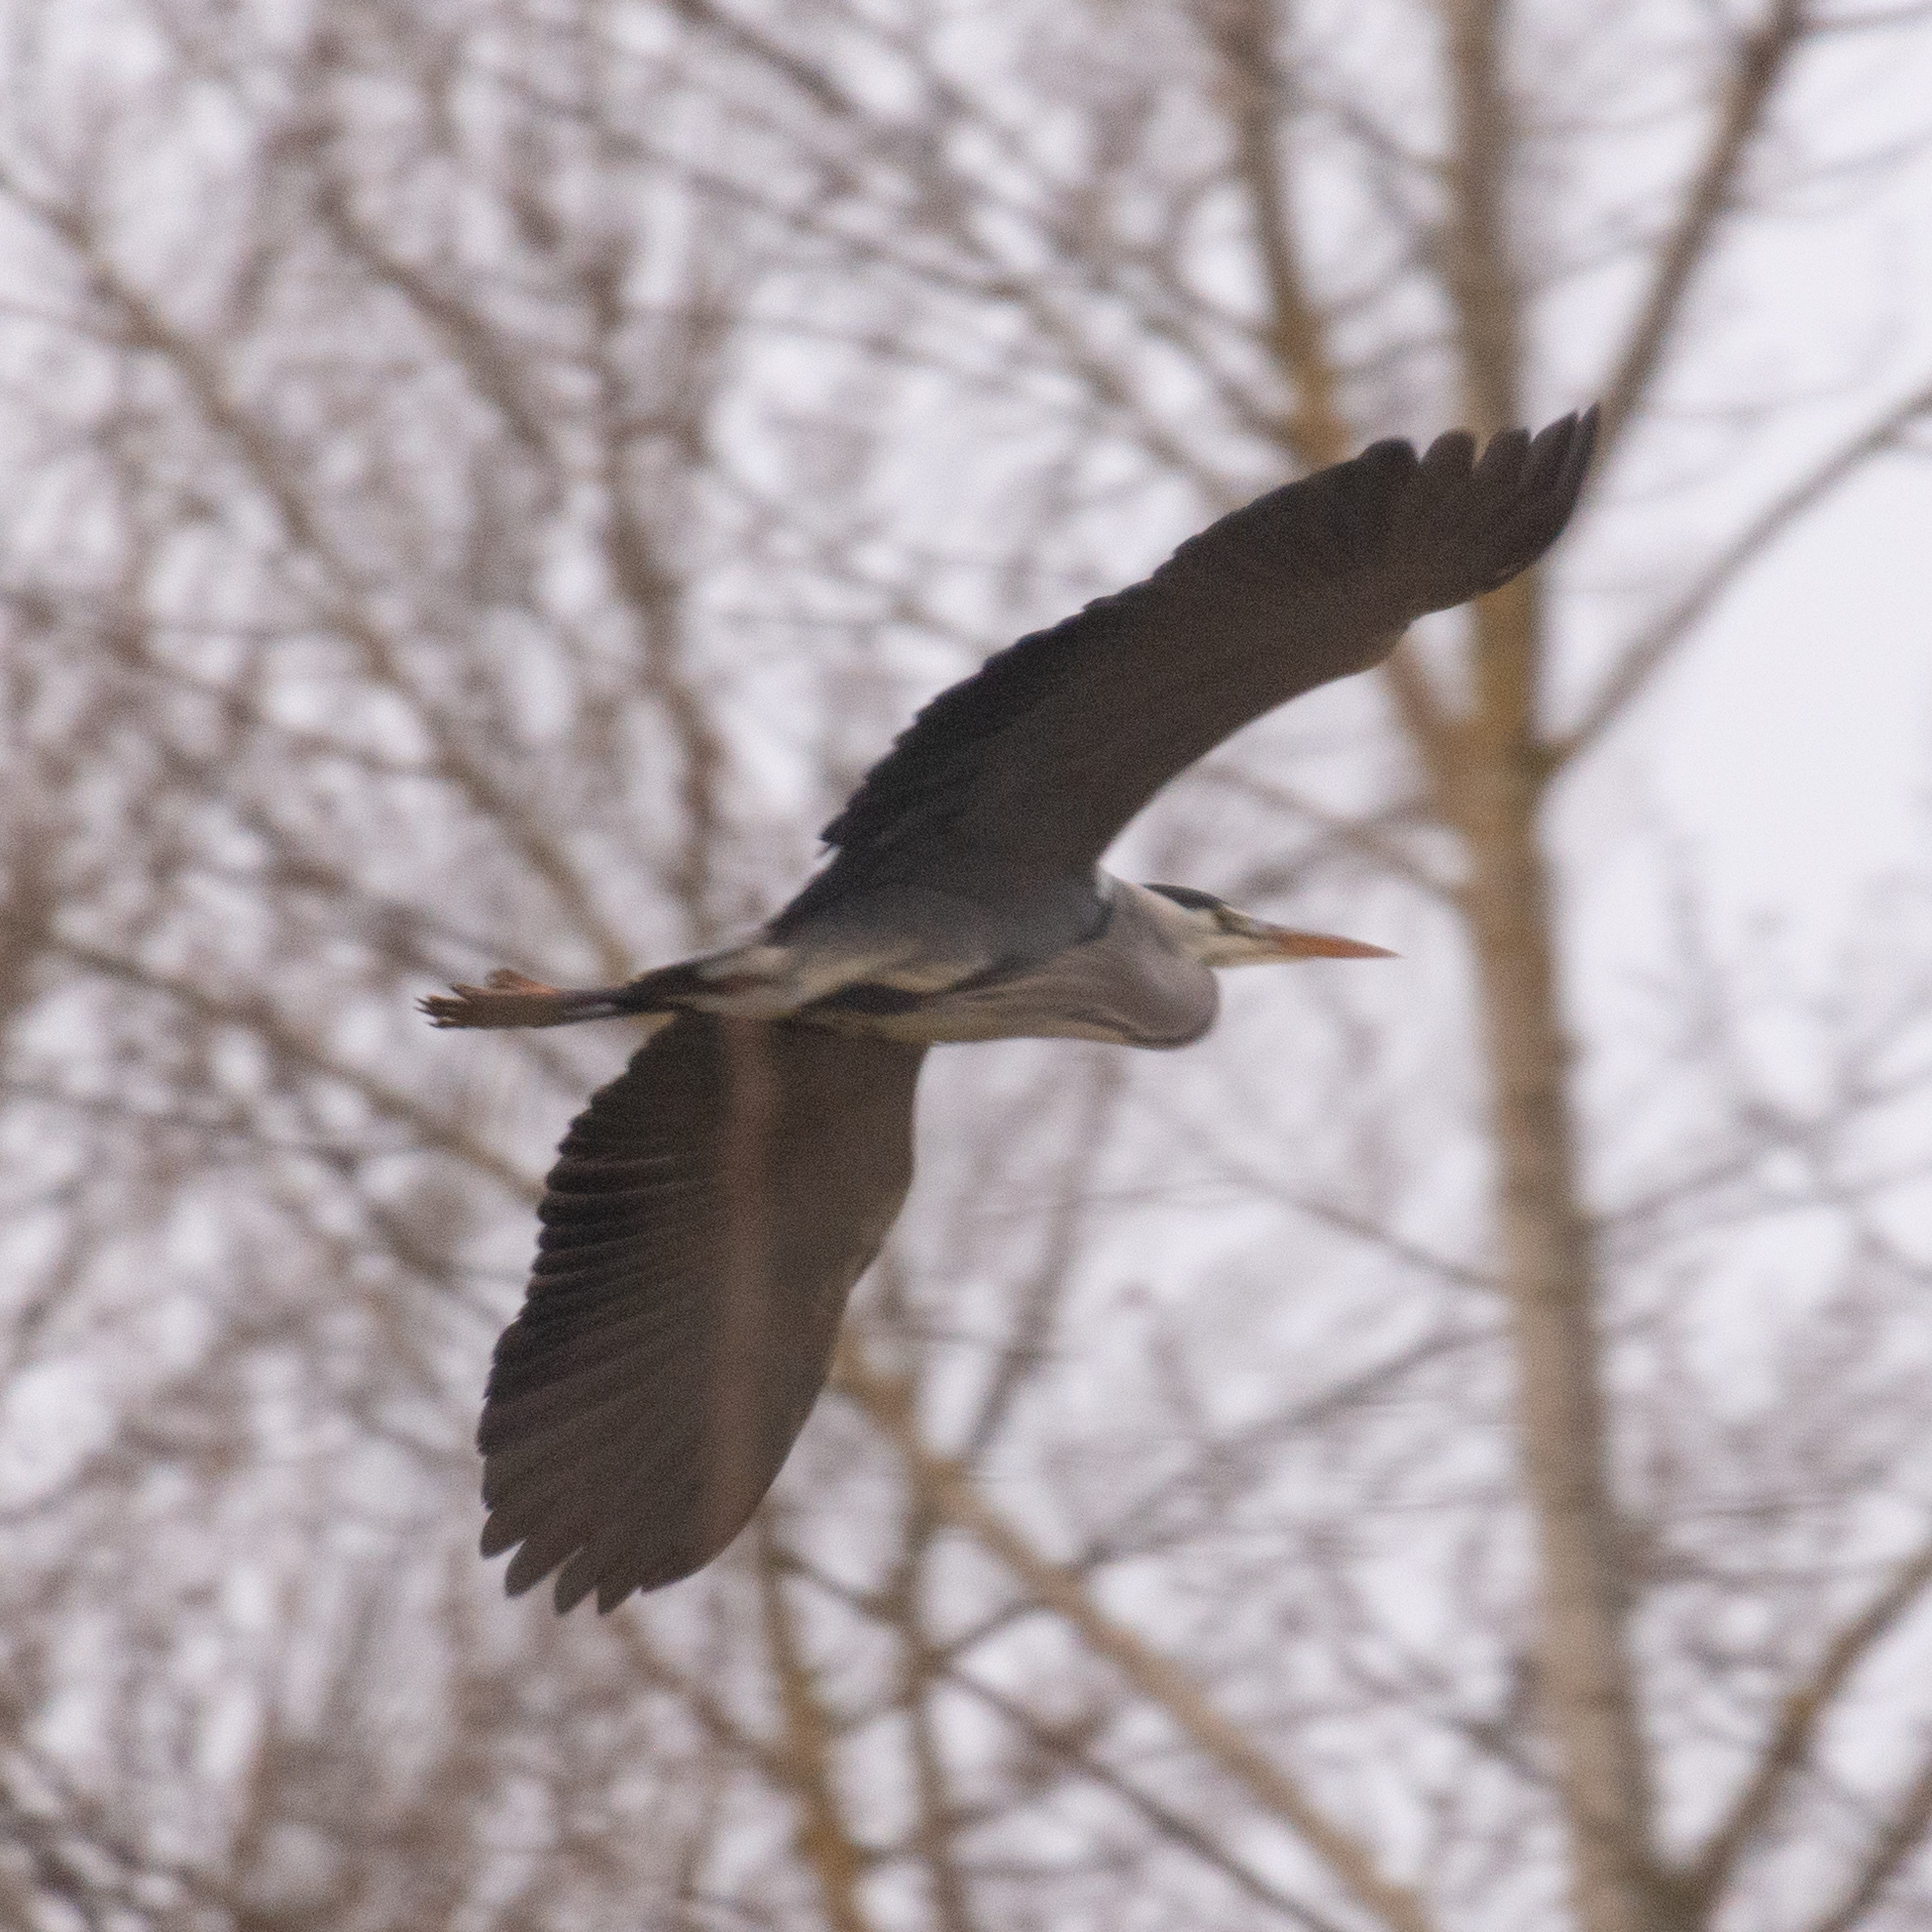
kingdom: Animalia
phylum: Chordata
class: Aves
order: Pelecaniformes
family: Ardeidae
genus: Ardea
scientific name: Ardea cinerea
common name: Grey heron
